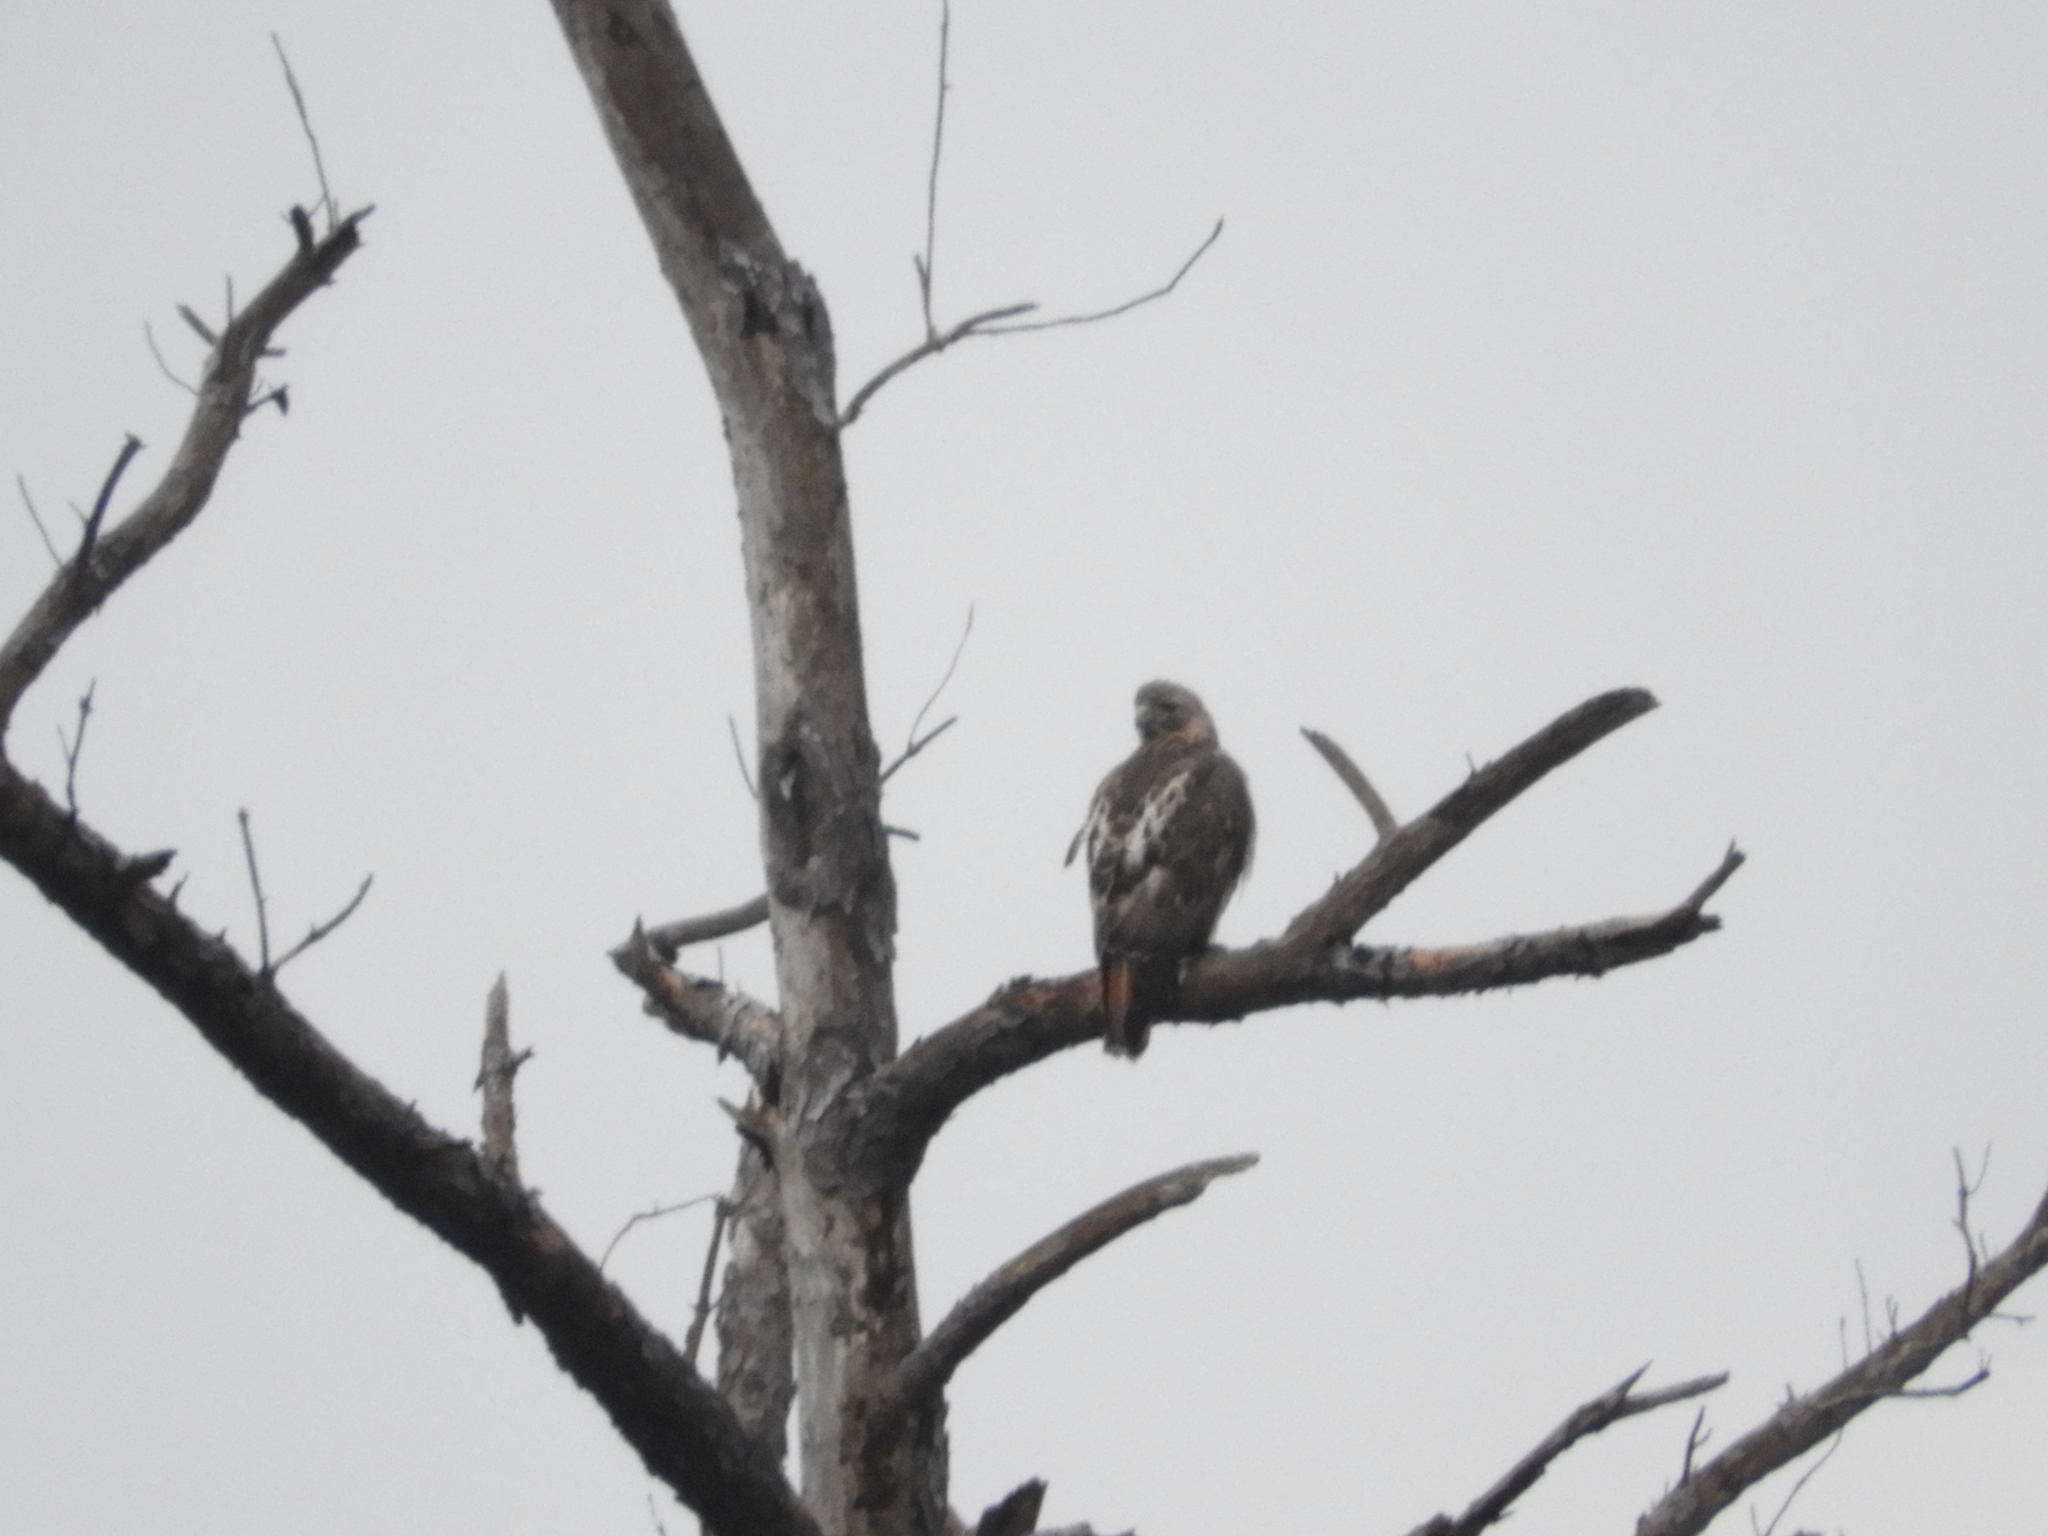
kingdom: Animalia
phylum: Chordata
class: Aves
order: Accipitriformes
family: Accipitridae
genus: Buteo
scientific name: Buteo jamaicensis
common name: Red-tailed hawk
